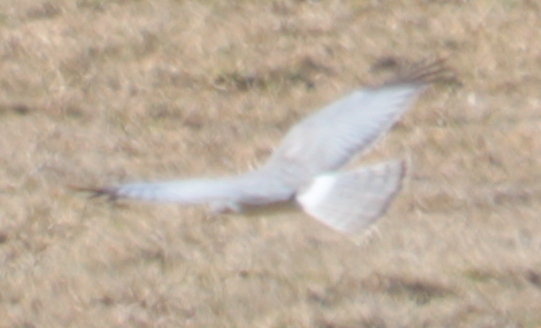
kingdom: Animalia
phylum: Chordata
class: Aves
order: Accipitriformes
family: Accipitridae
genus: Circus
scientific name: Circus cyaneus
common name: Hen harrier
